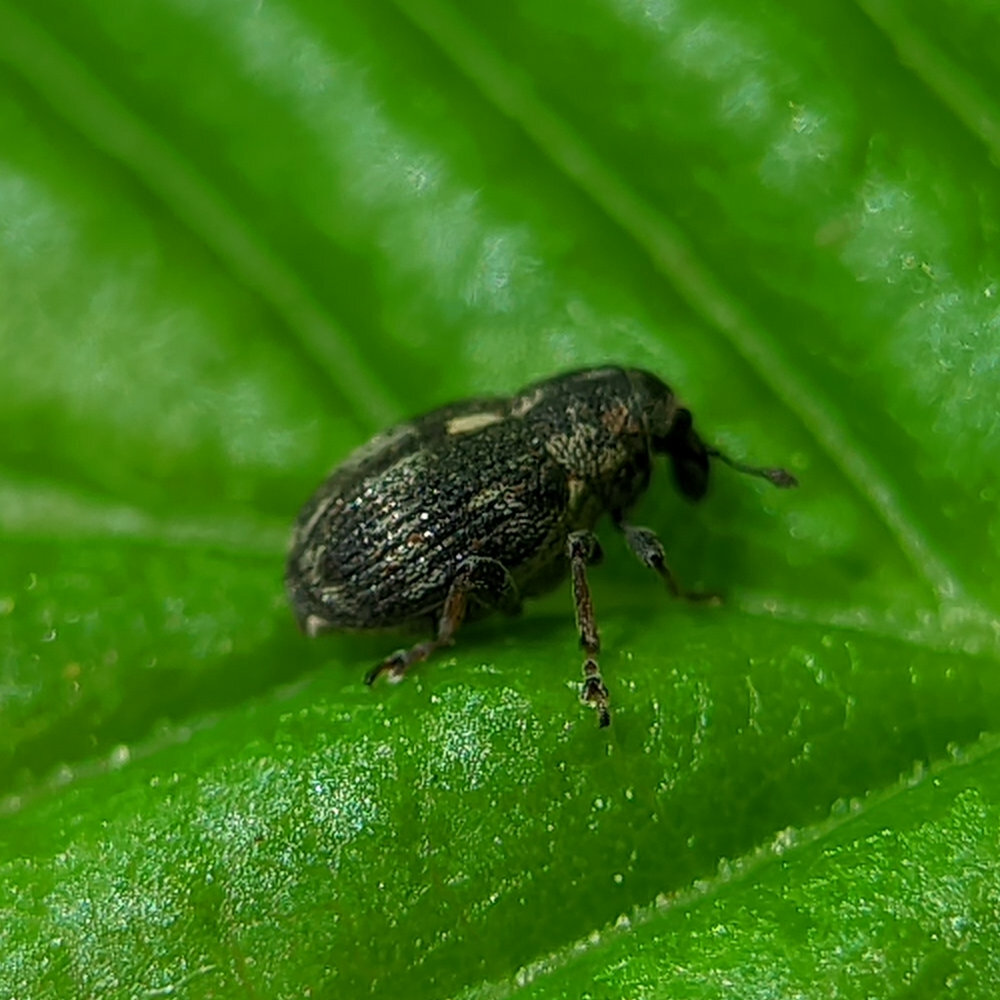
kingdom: Animalia
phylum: Arthropoda
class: Insecta
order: Coleoptera
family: Curculionidae
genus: Rhinoncus
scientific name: Rhinoncus perpendicularis
